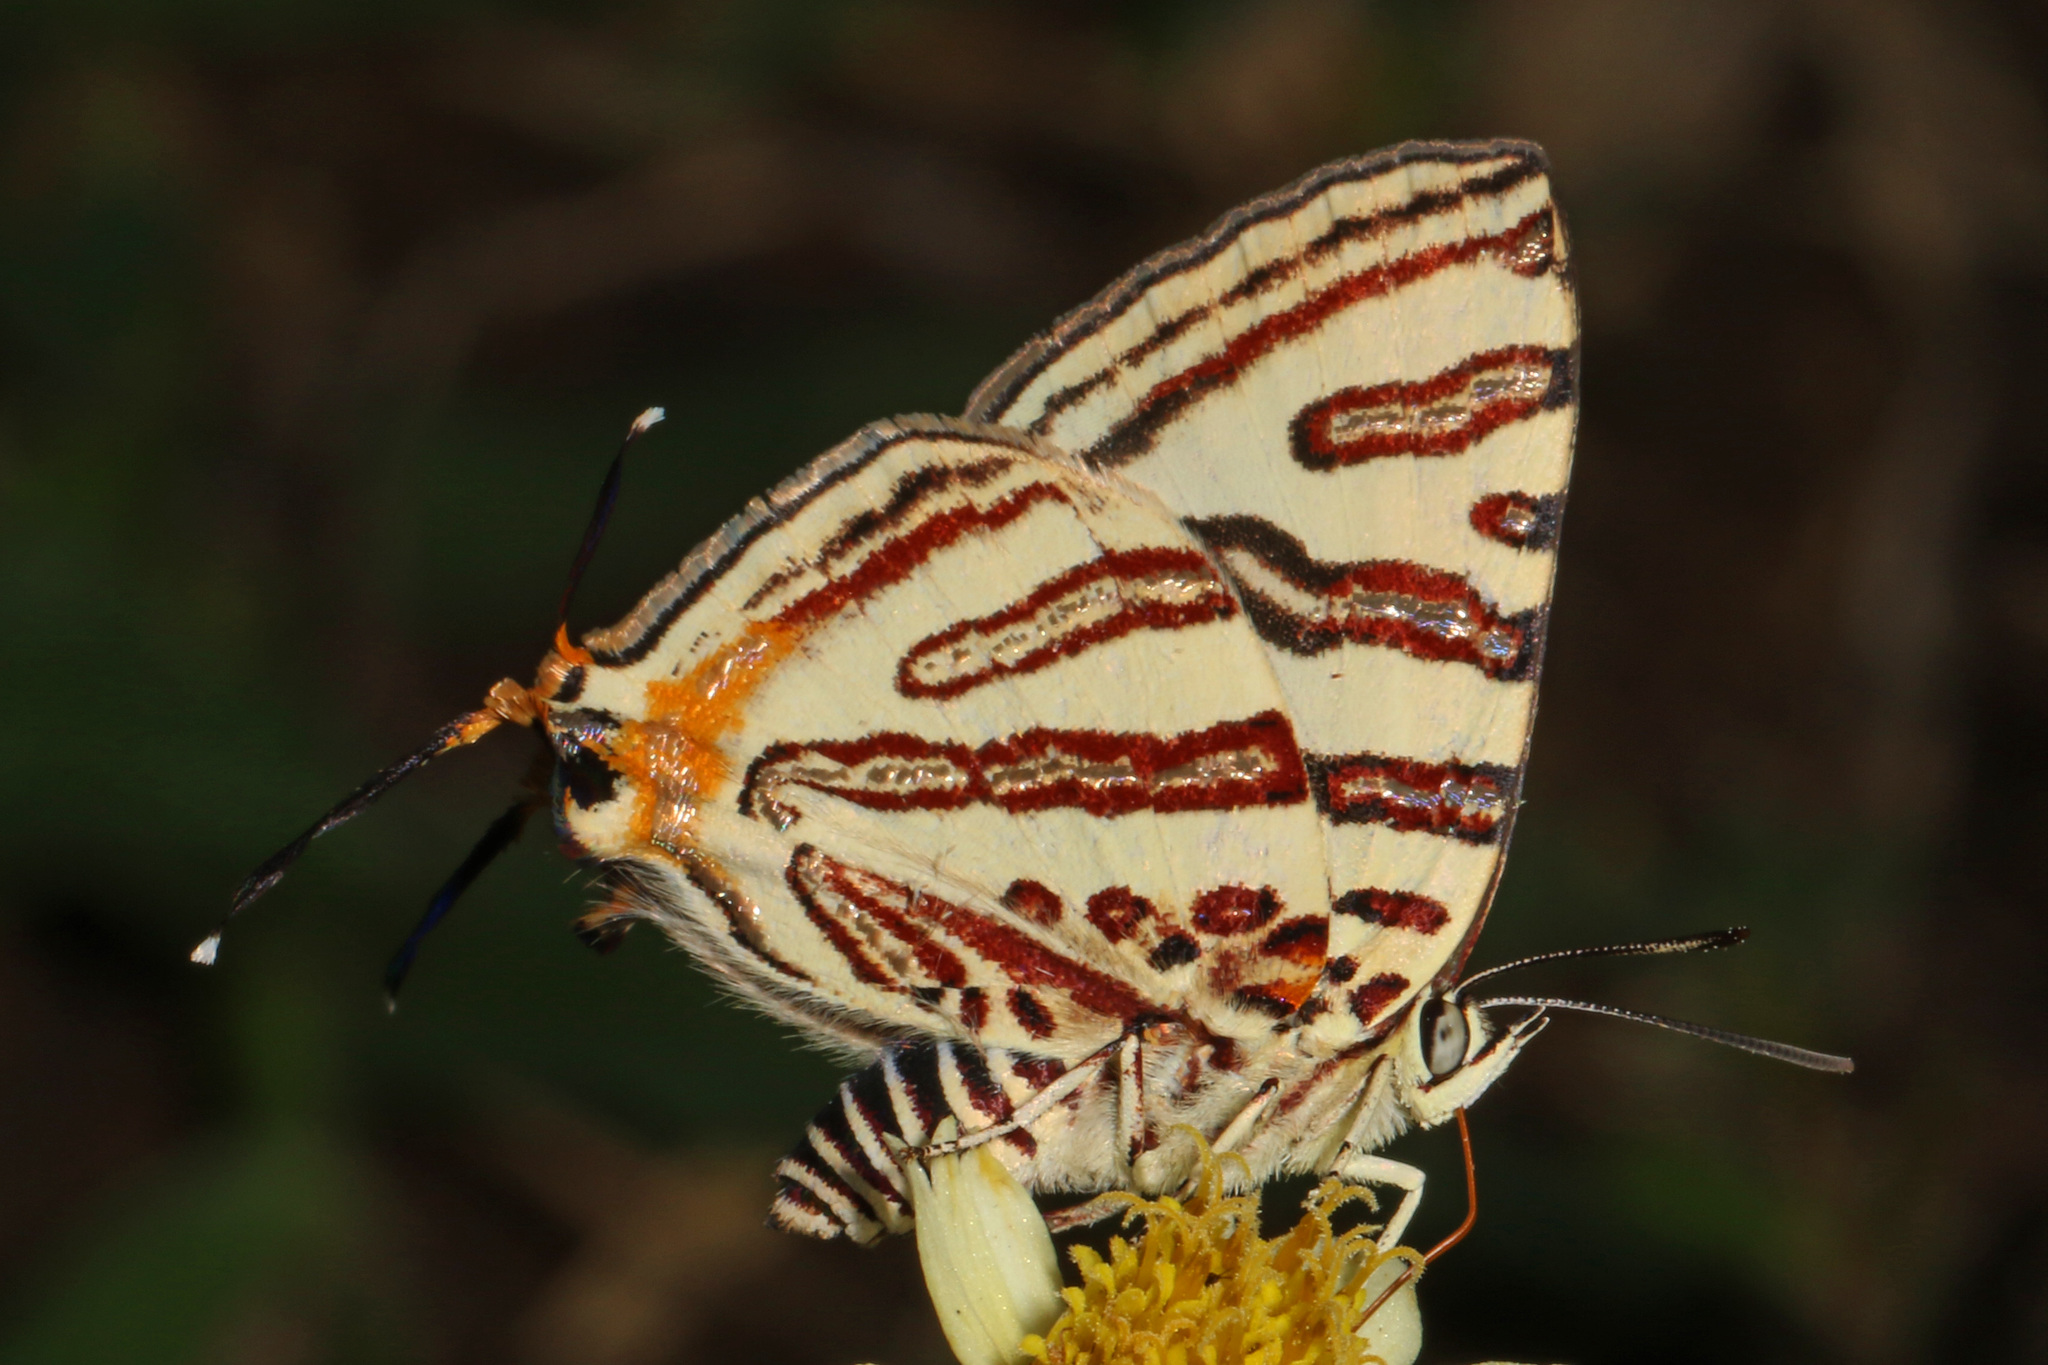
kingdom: Animalia
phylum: Arthropoda
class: Insecta
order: Lepidoptera
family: Lycaenidae
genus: Spindasis
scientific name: Spindasis natalensis
